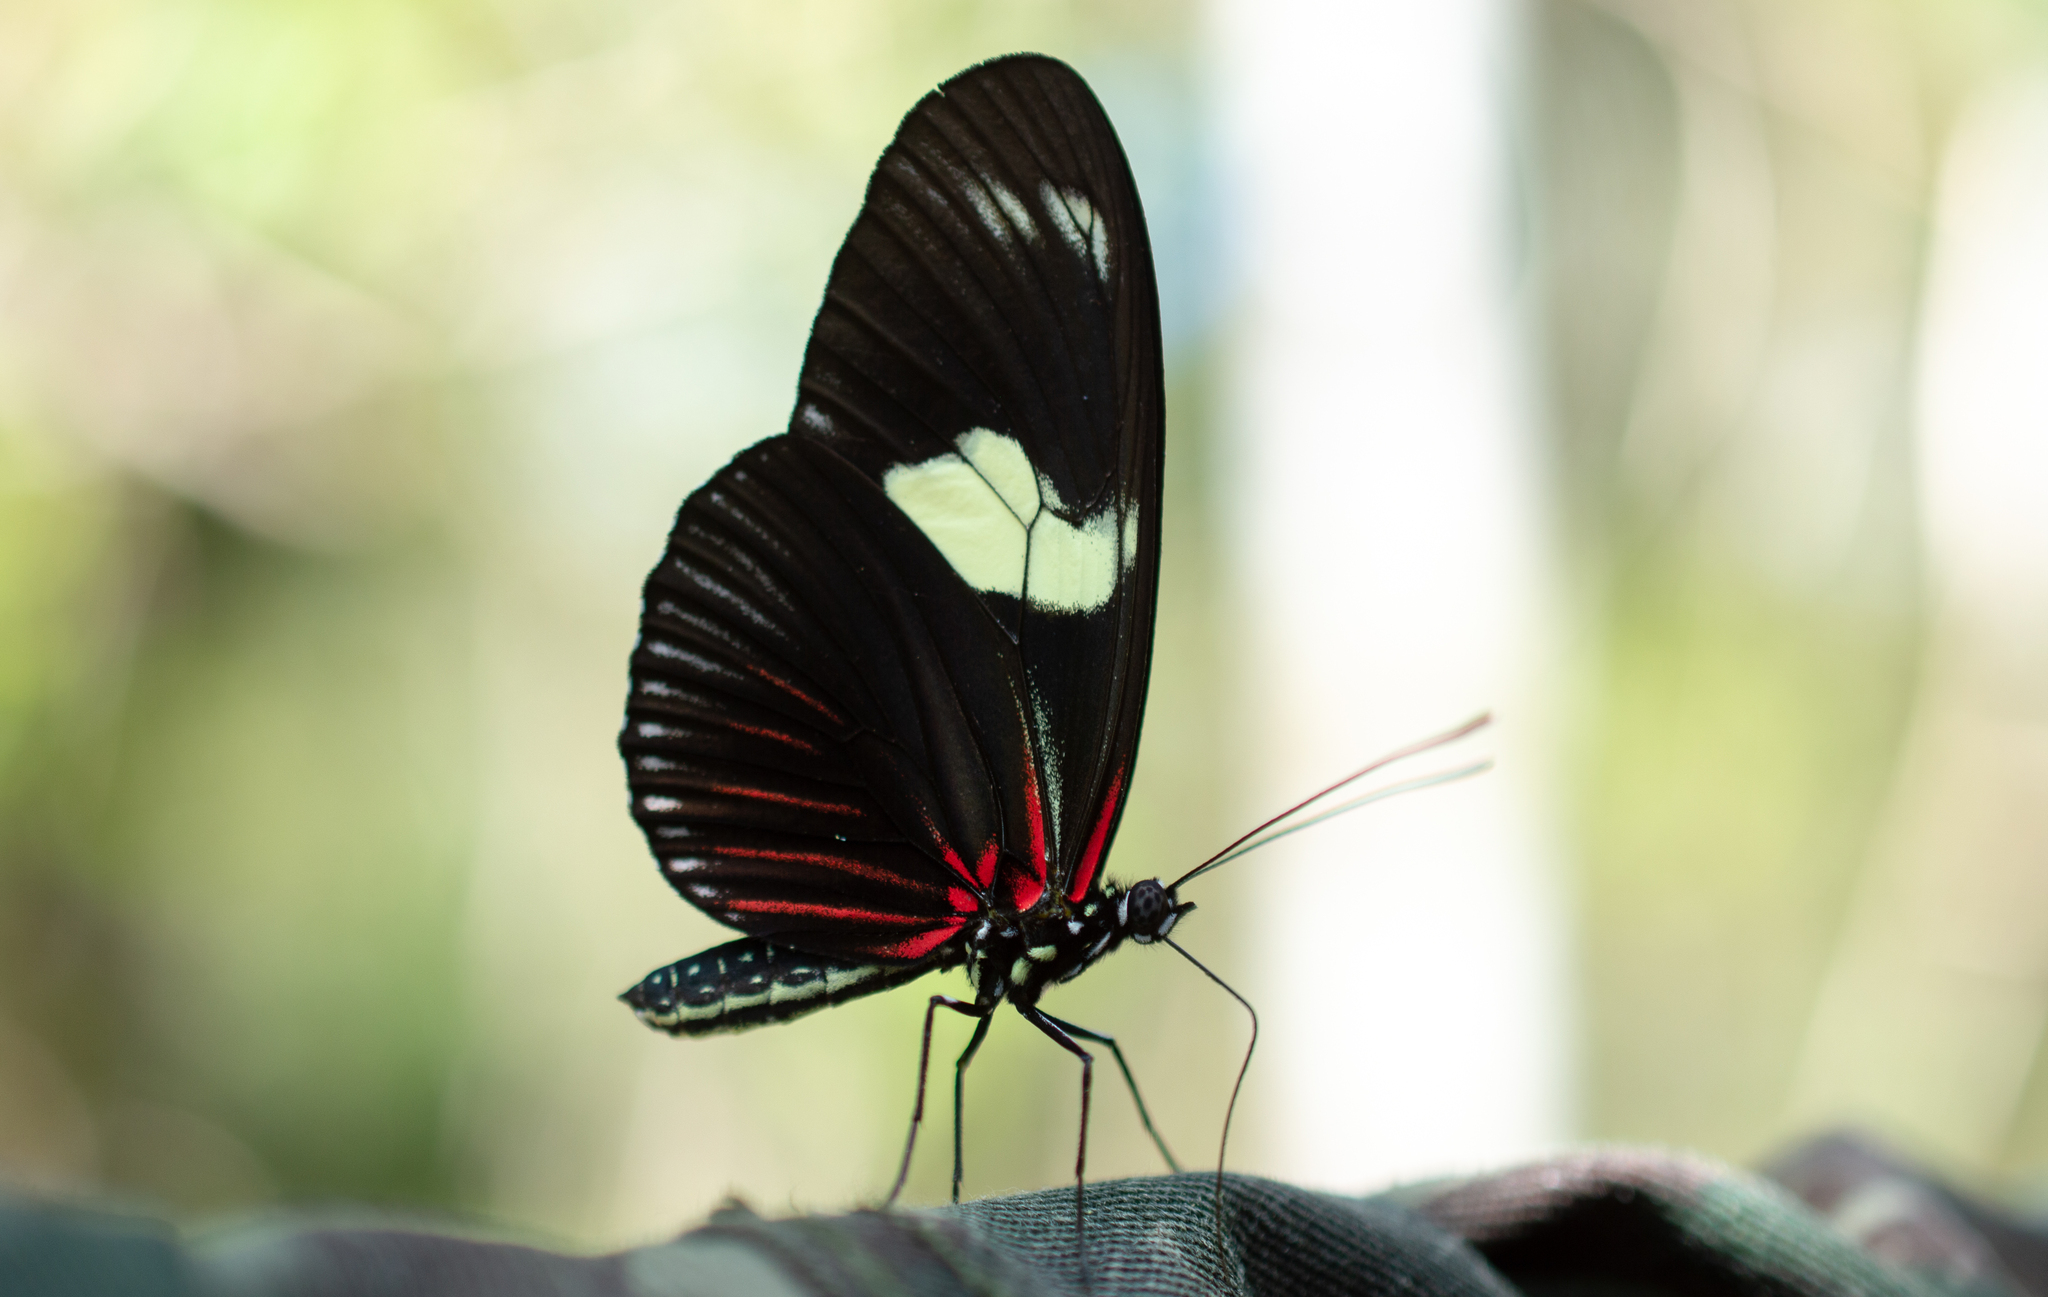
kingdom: Animalia
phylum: Arthropoda
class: Insecta
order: Lepidoptera
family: Nymphalidae
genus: Heliconius
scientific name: Heliconius doris
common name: Doris longwing
